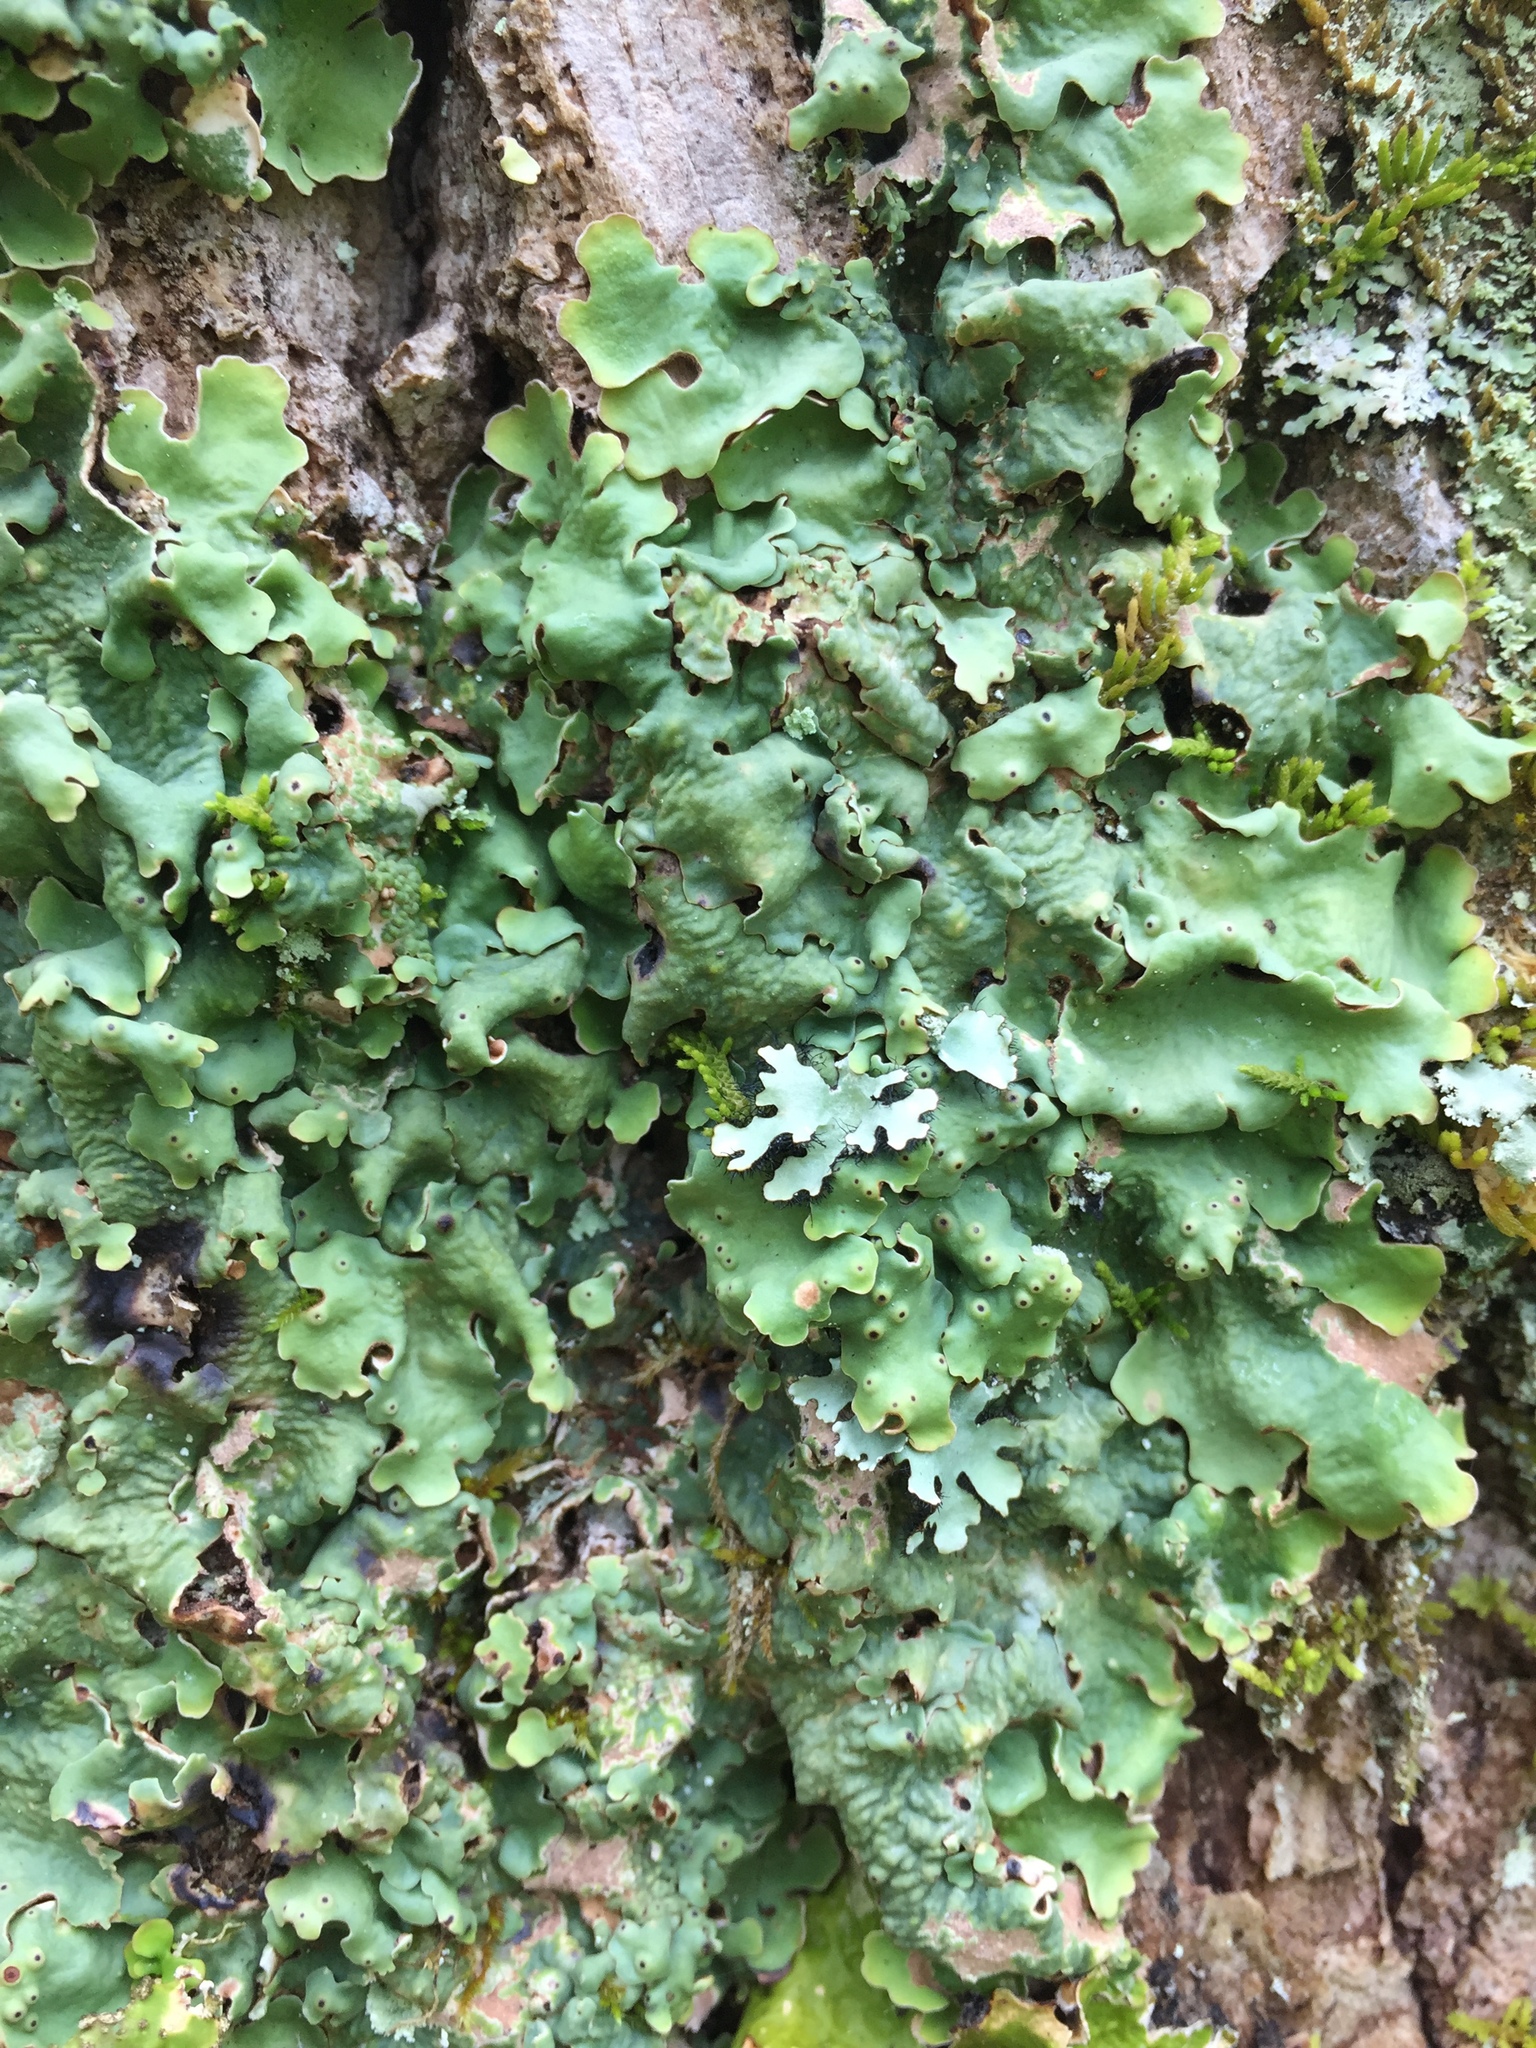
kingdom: Fungi
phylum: Ascomycota
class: Lecanoromycetes
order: Peltigerales
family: Lobariaceae
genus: Ricasolia
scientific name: Ricasolia quercizans
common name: Smooth lungwort
